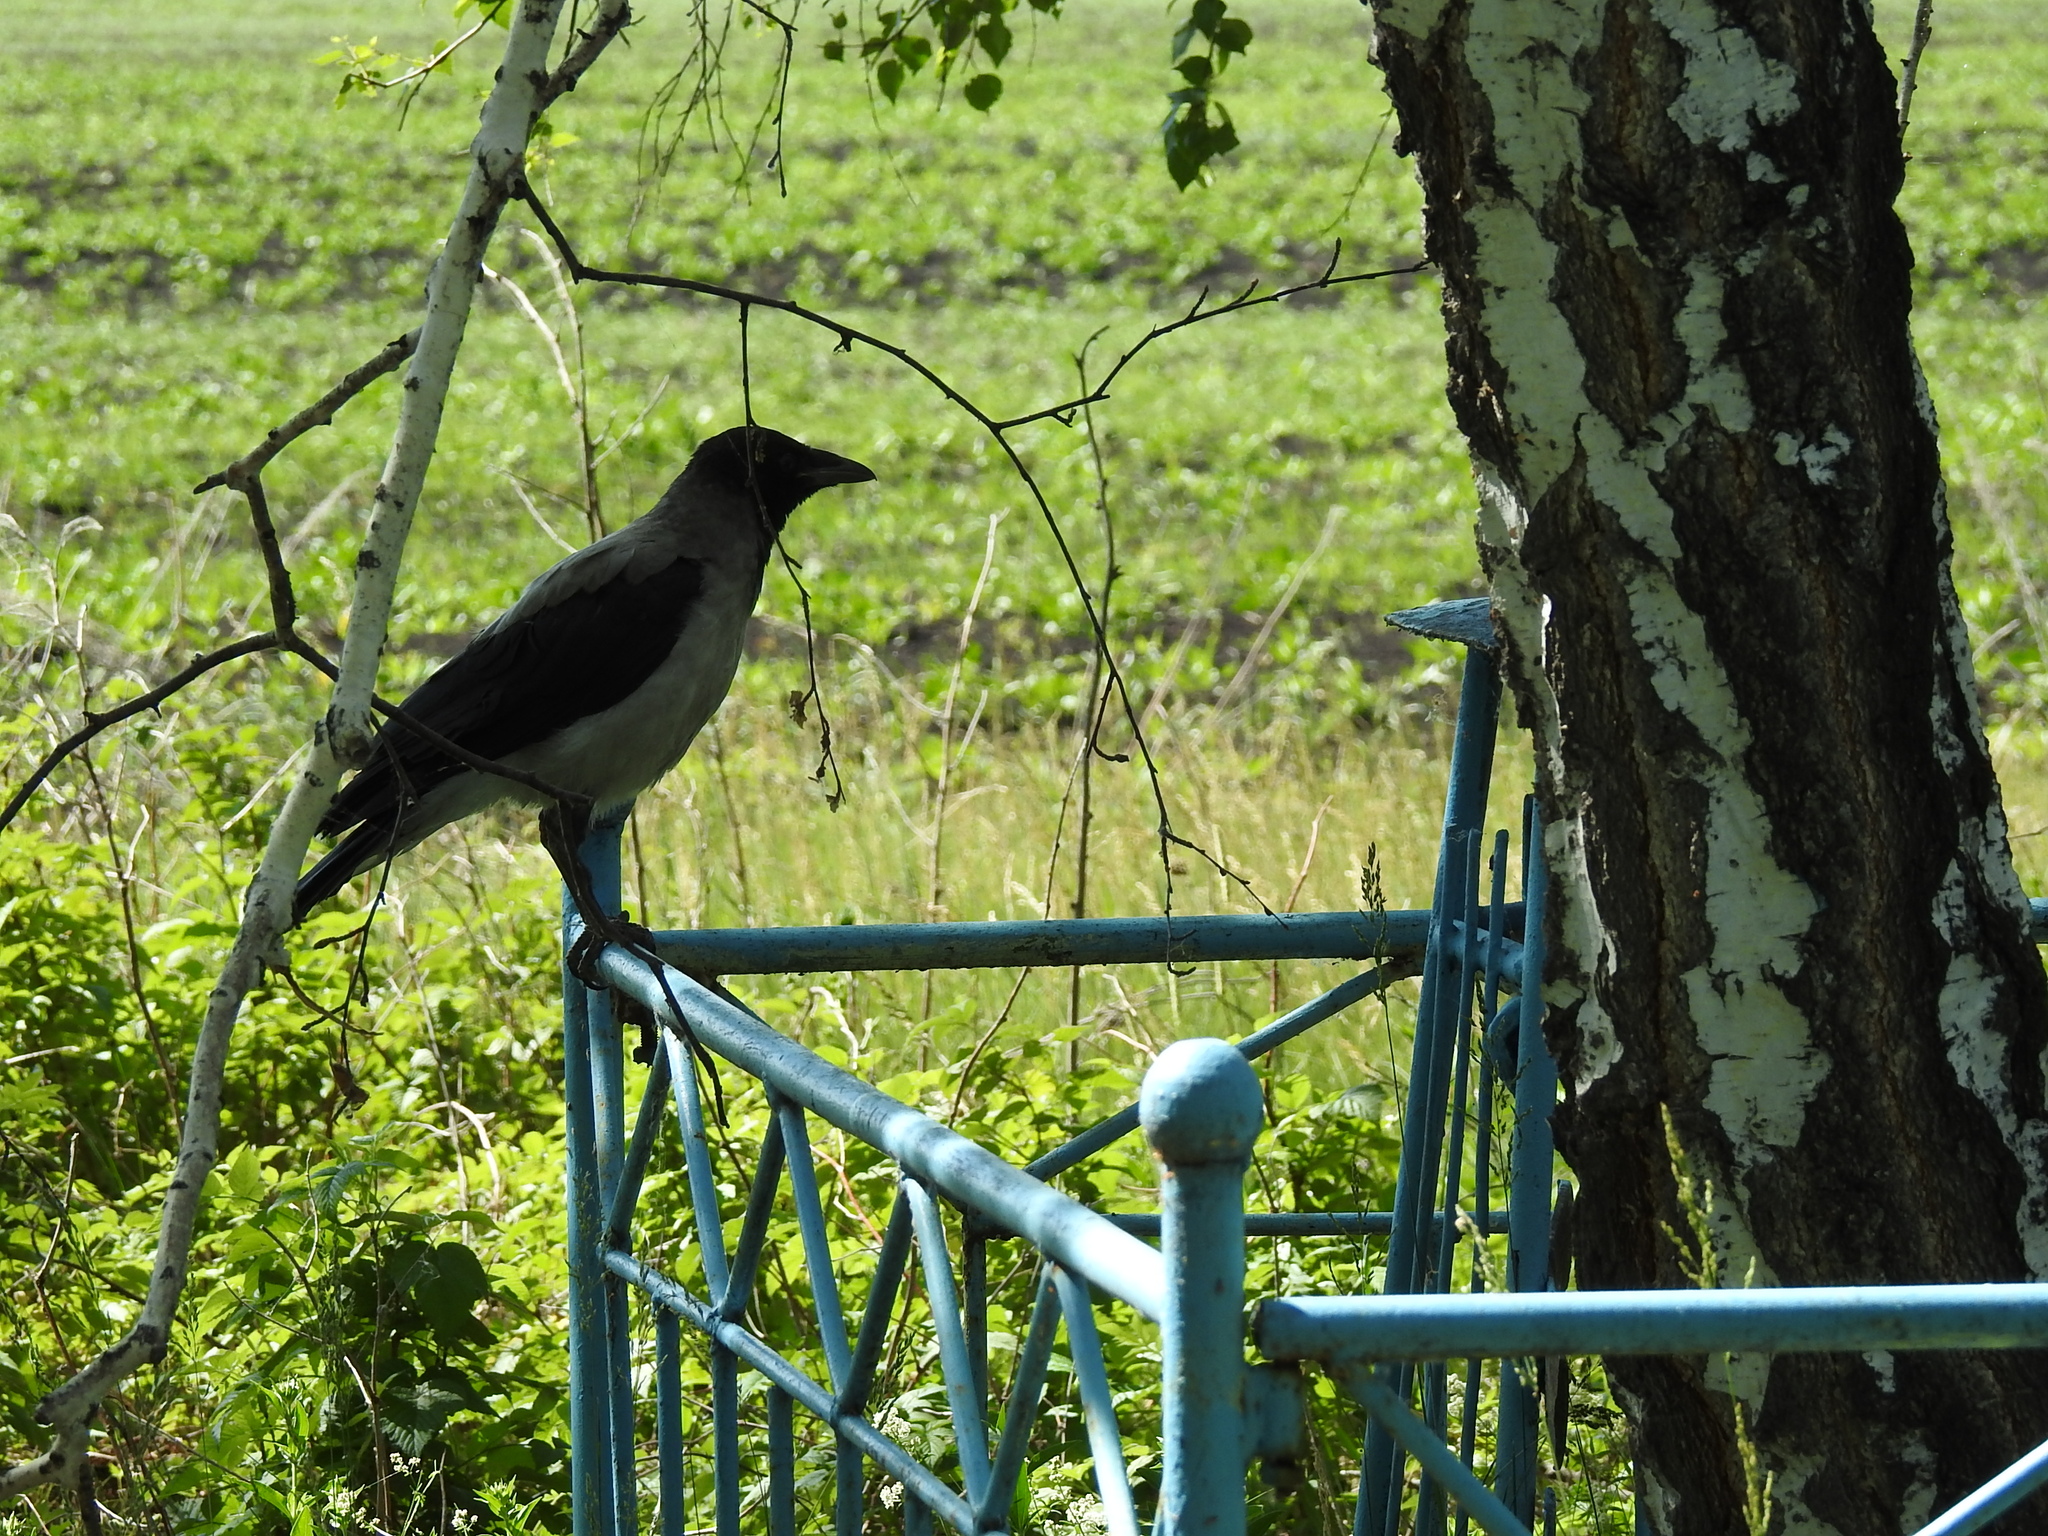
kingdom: Animalia
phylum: Chordata
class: Aves
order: Passeriformes
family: Corvidae
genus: Corvus
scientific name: Corvus cornix
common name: Hooded crow
